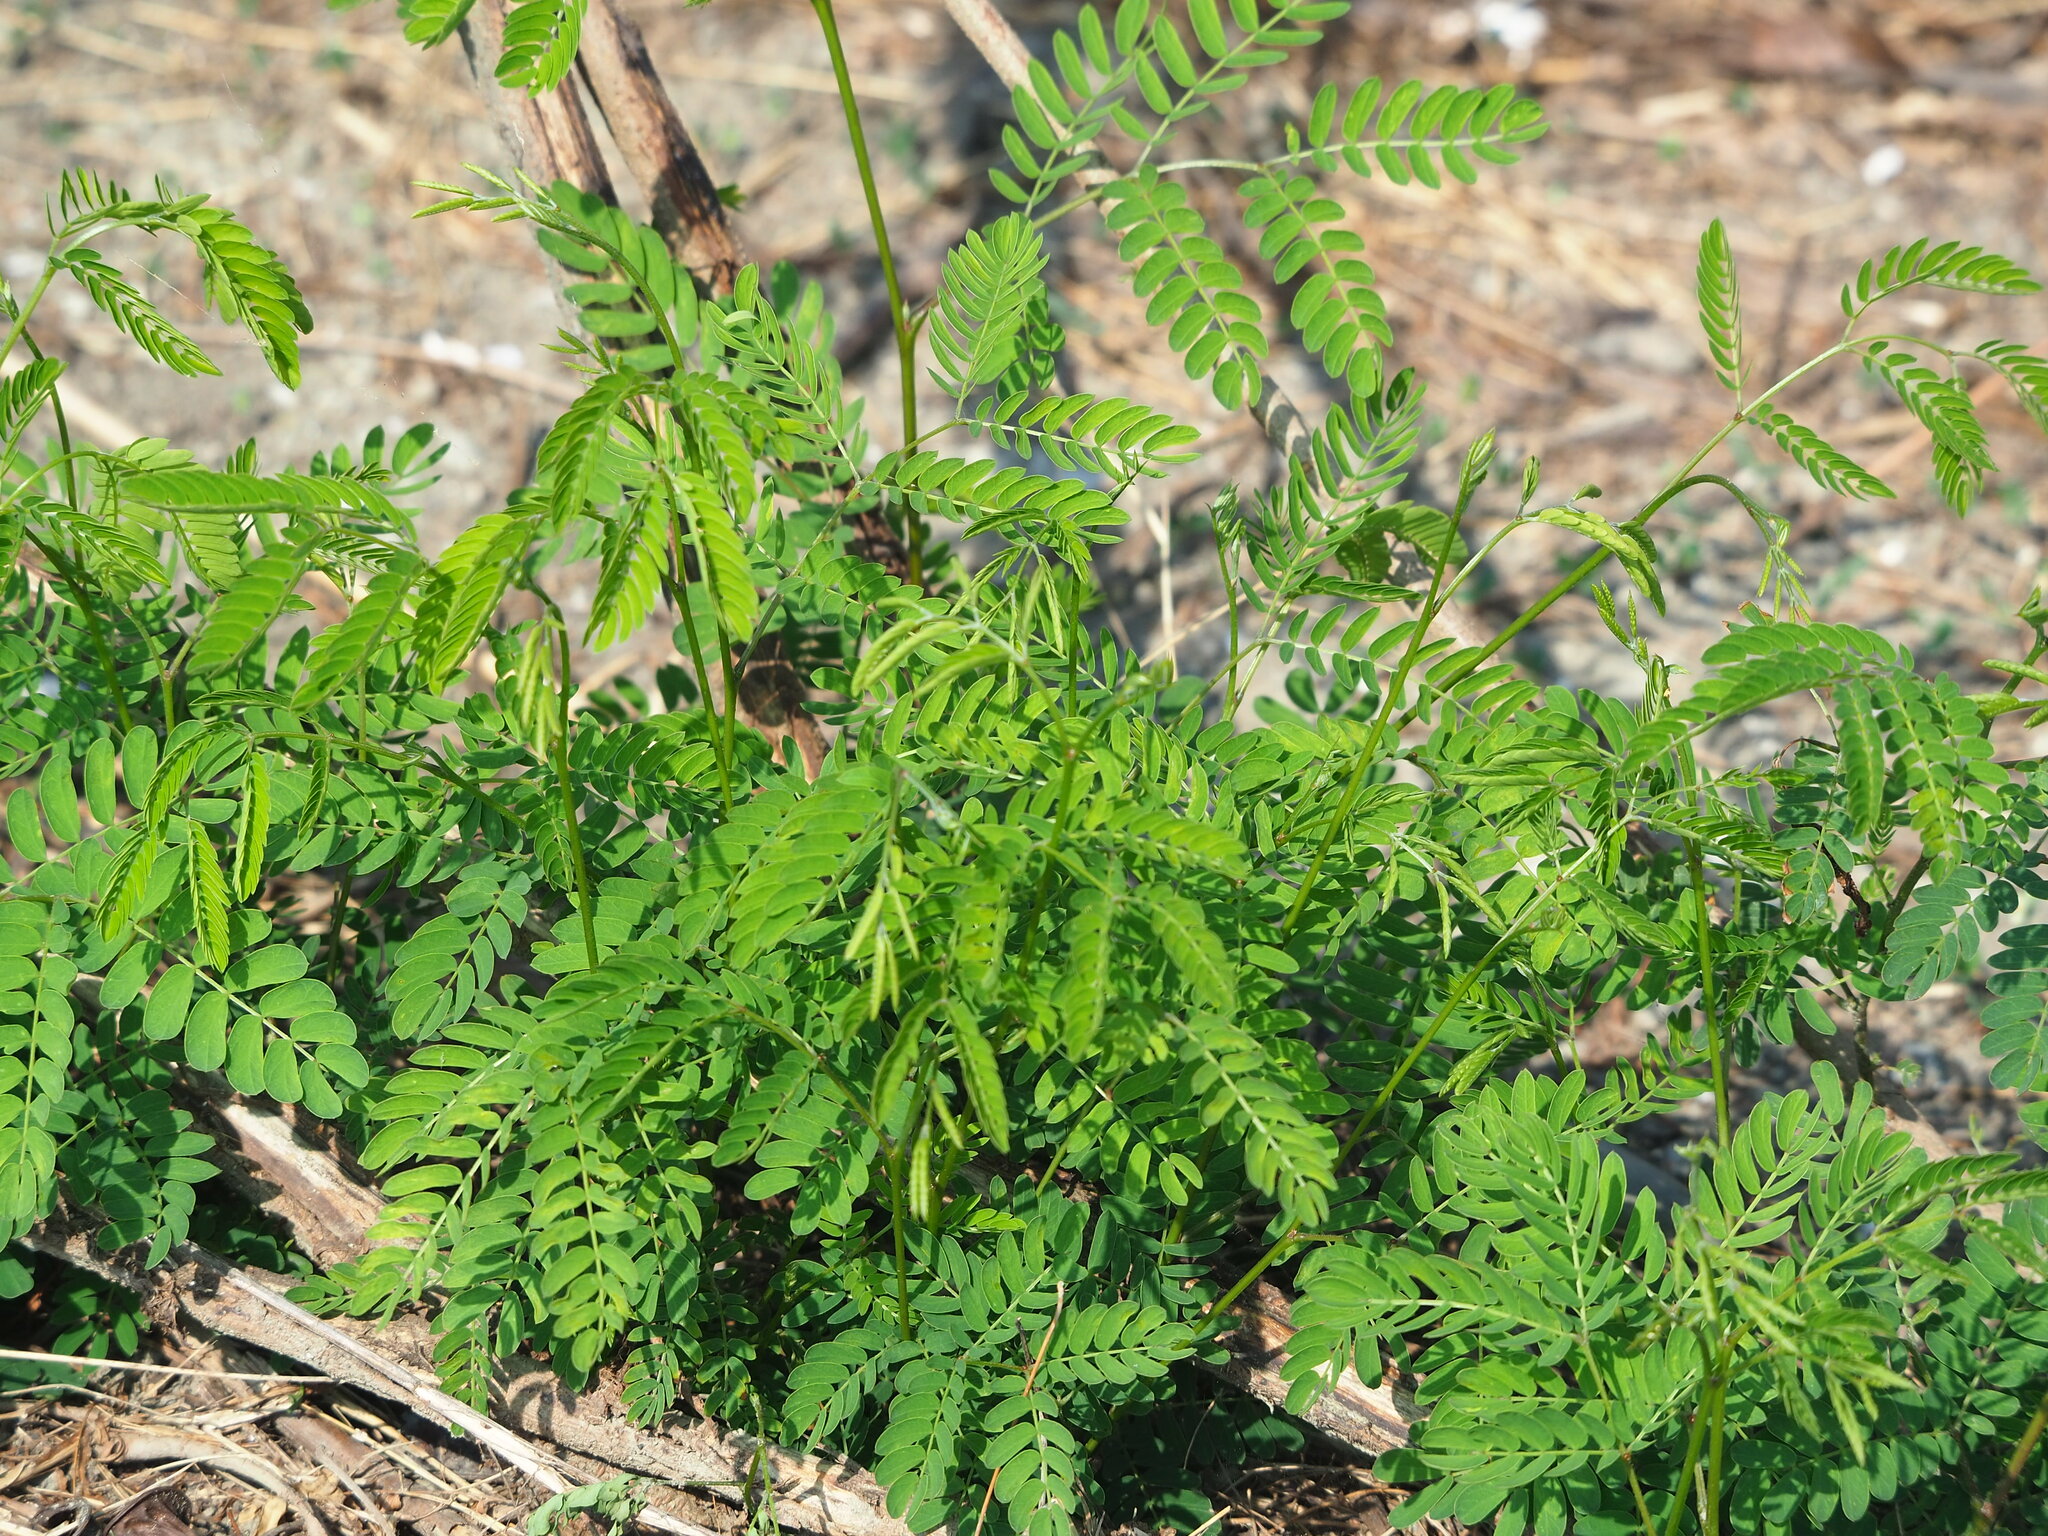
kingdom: Plantae
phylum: Tracheophyta
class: Magnoliopsida
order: Fabales
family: Fabaceae
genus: Leucaena
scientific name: Leucaena leucocephala
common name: White leadtree
